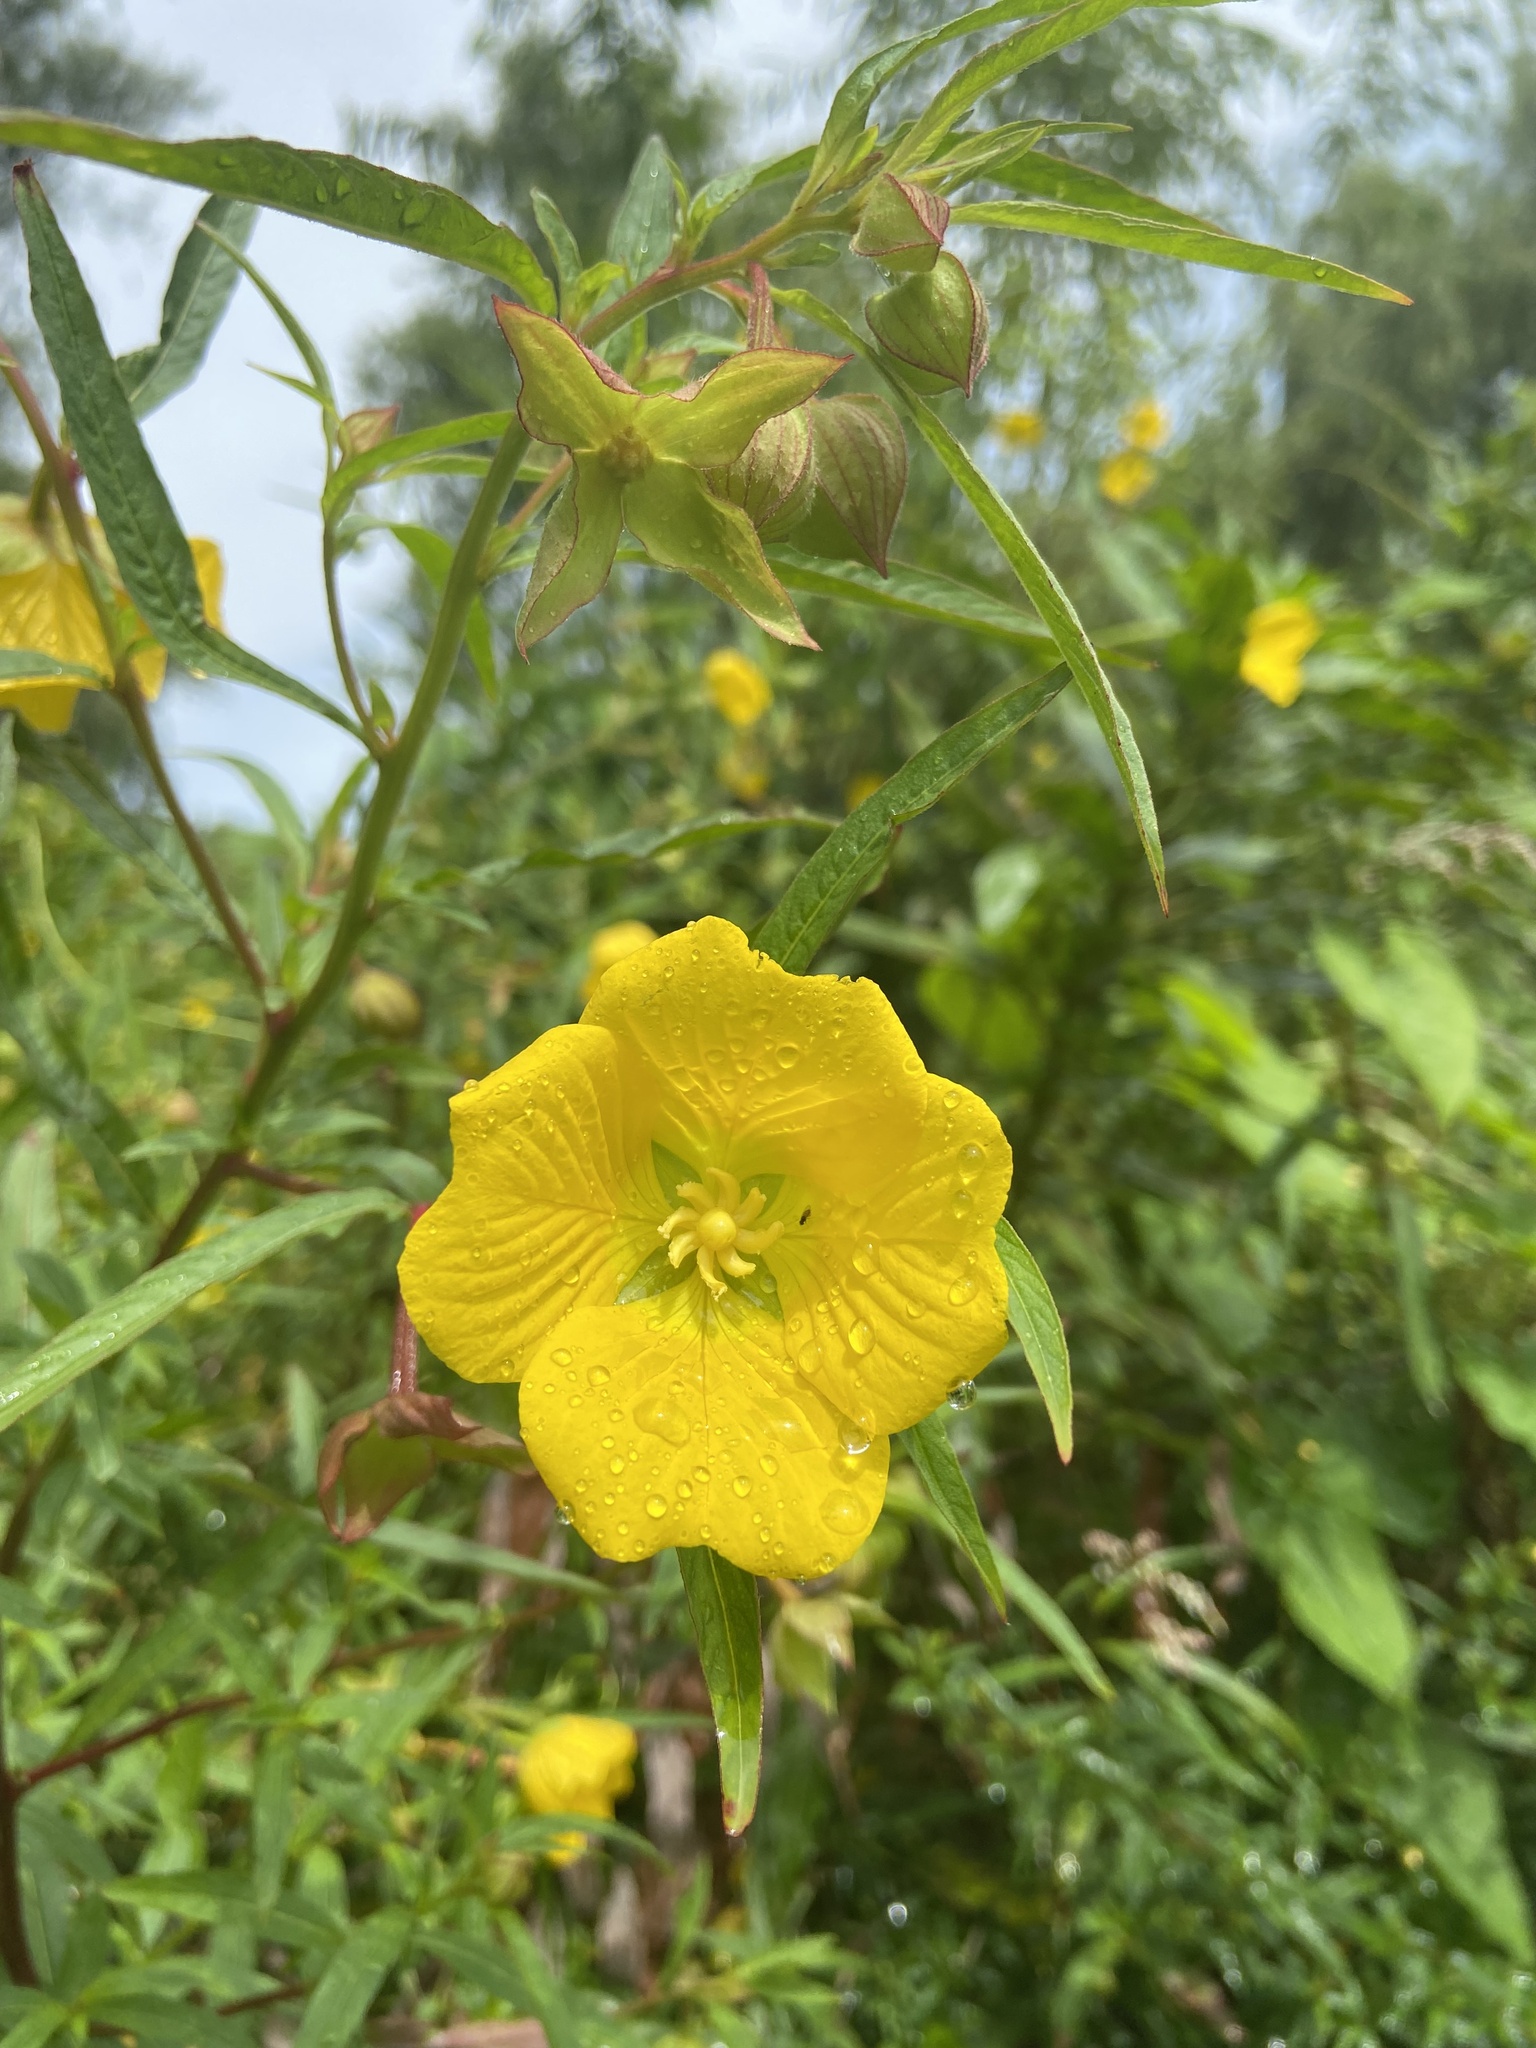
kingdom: Plantae
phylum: Tracheophyta
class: Magnoliopsida
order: Myrtales
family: Onagraceae
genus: Ludwigia
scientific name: Ludwigia bonariensis
